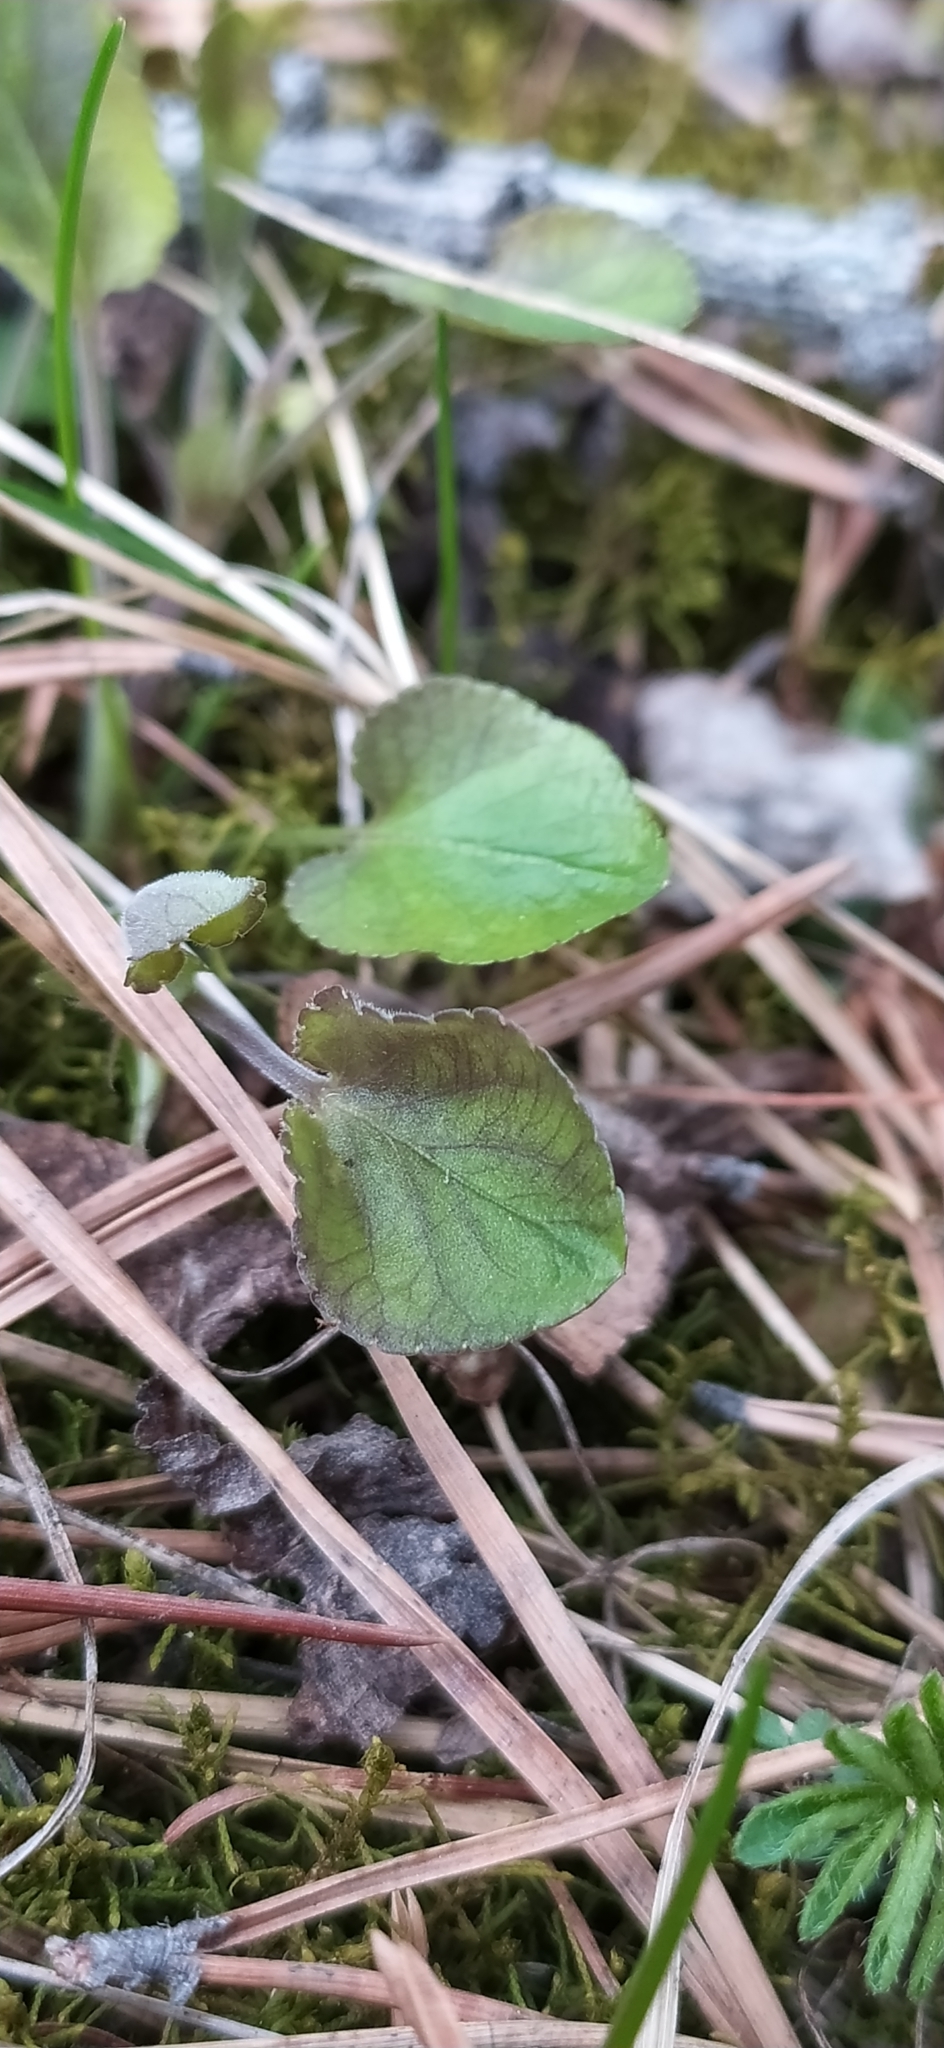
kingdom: Plantae
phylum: Tracheophyta
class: Magnoliopsida
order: Malpighiales
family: Violaceae
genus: Viola
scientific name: Viola rupestris
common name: Teesdale violet
